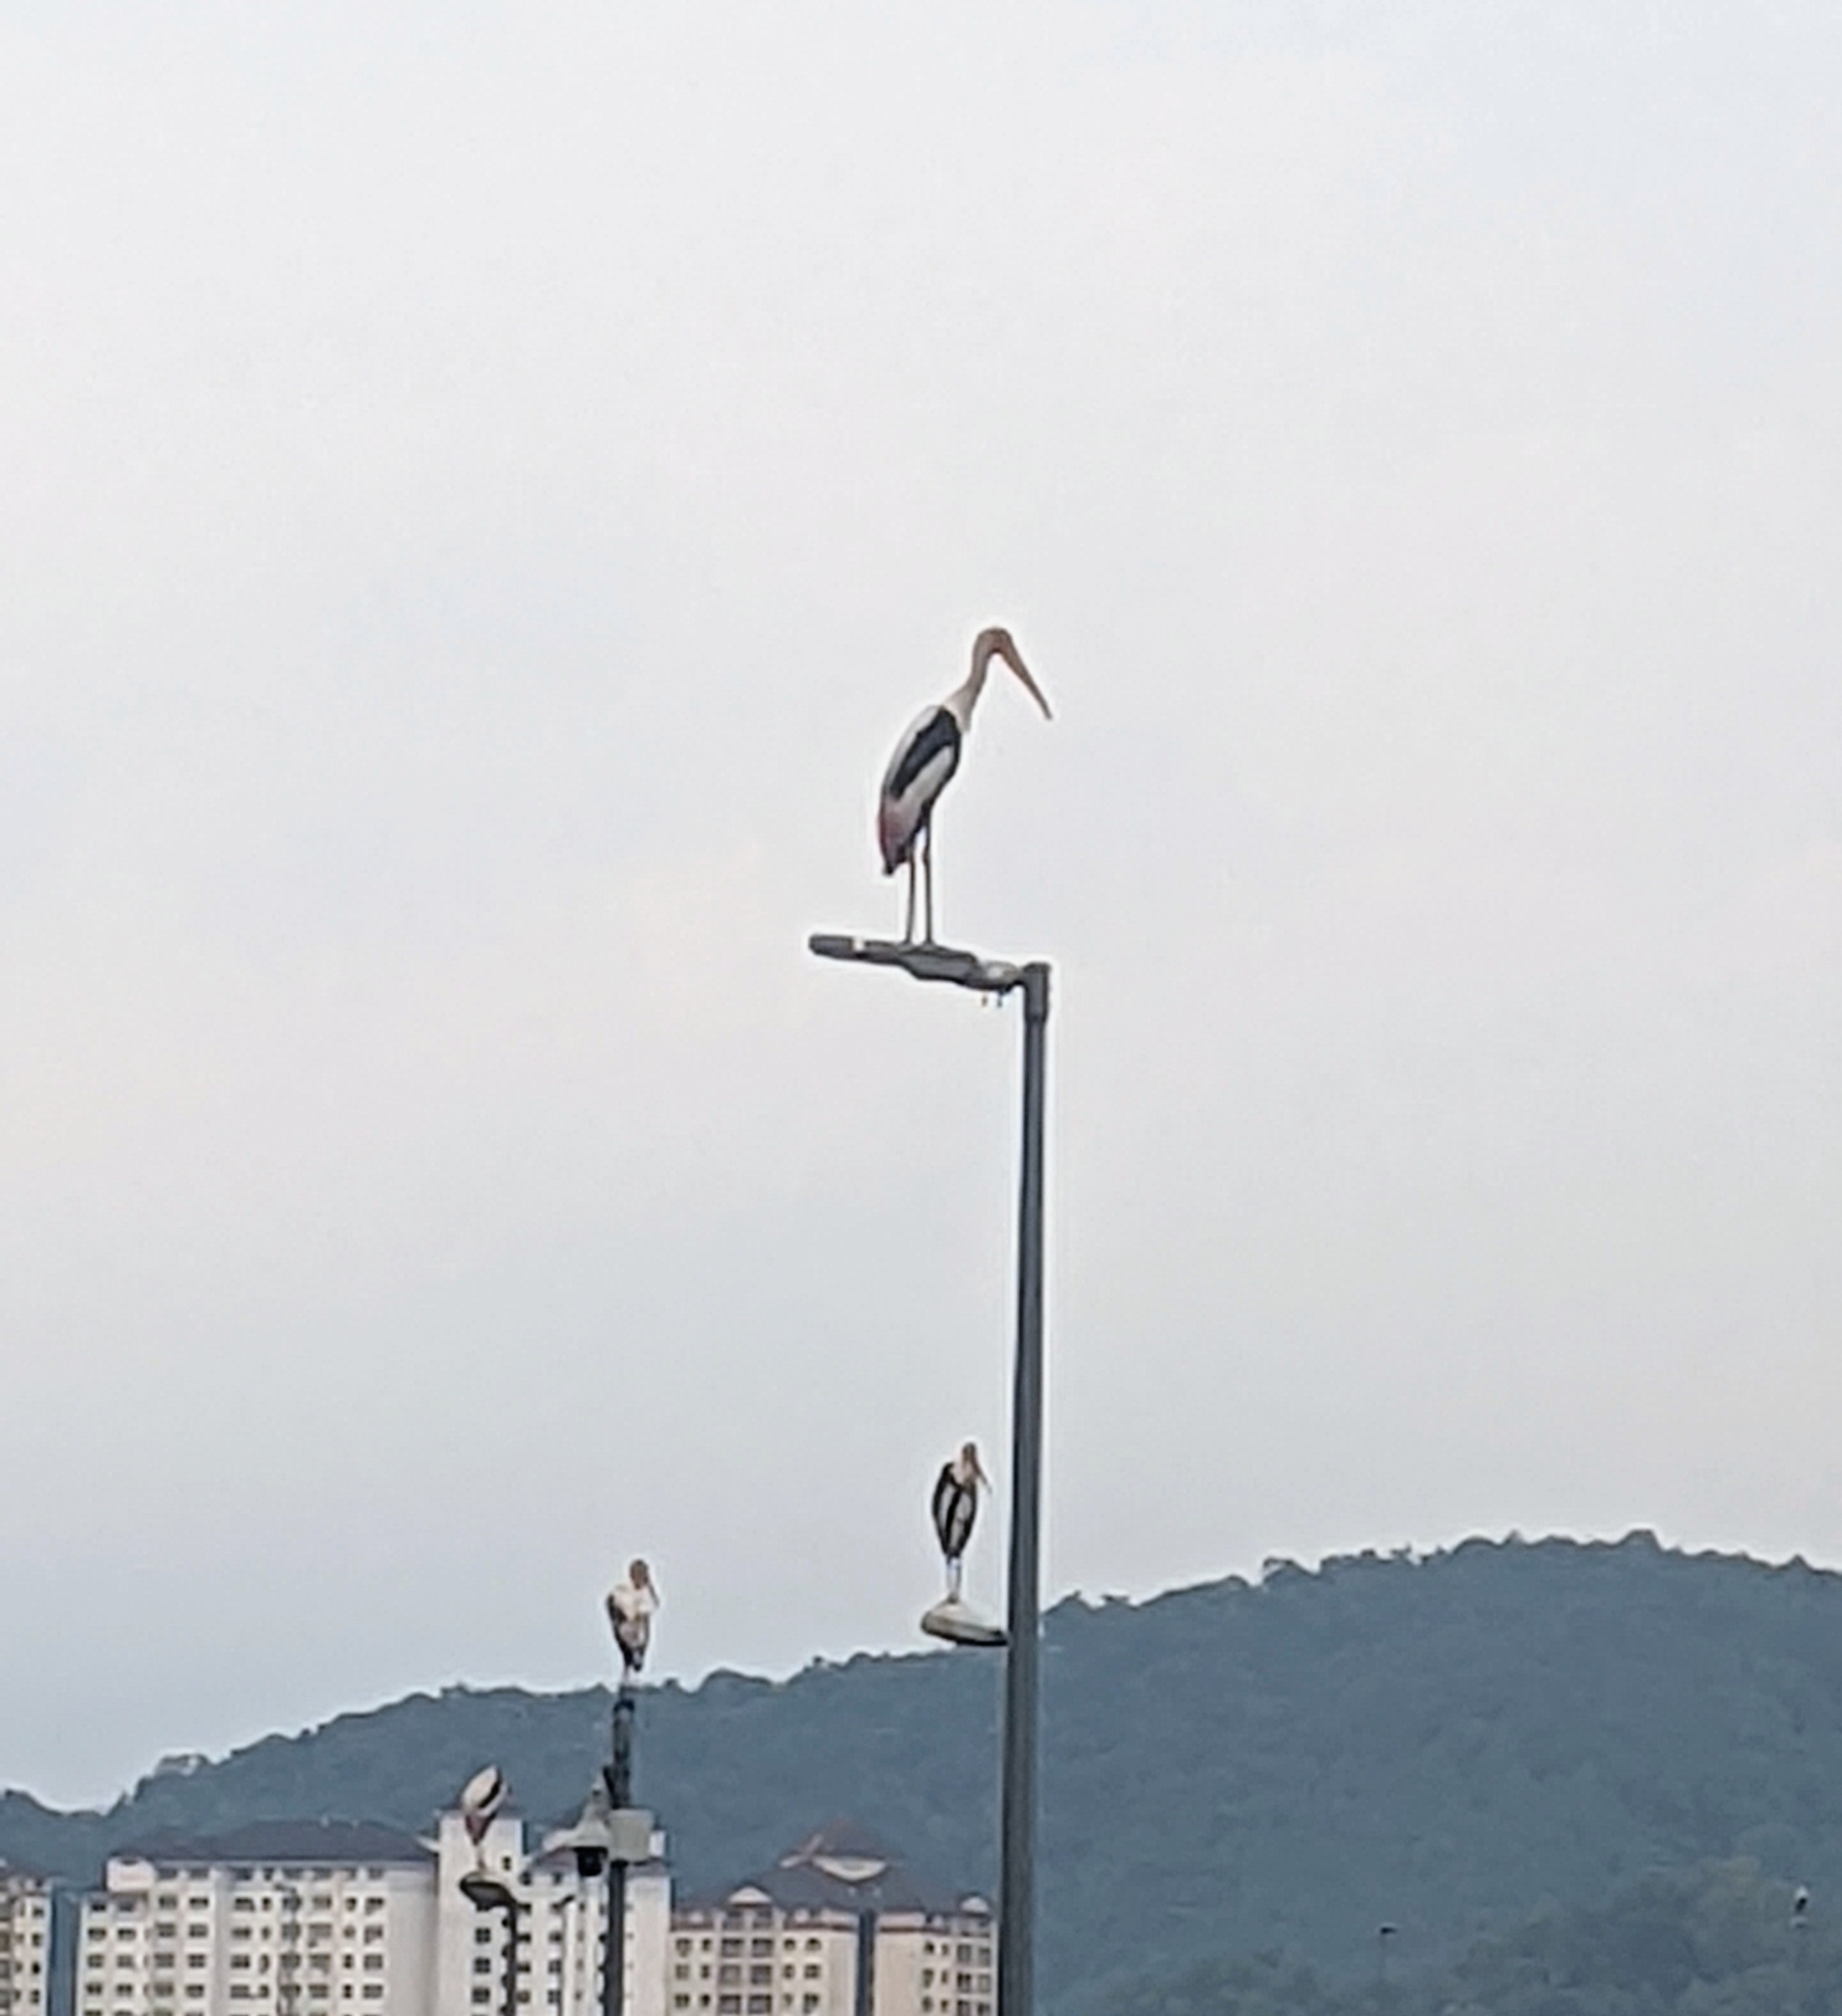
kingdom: Animalia
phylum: Chordata
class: Aves
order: Ciconiiformes
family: Ciconiidae
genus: Mycteria
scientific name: Mycteria leucocephala
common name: Painted stork
